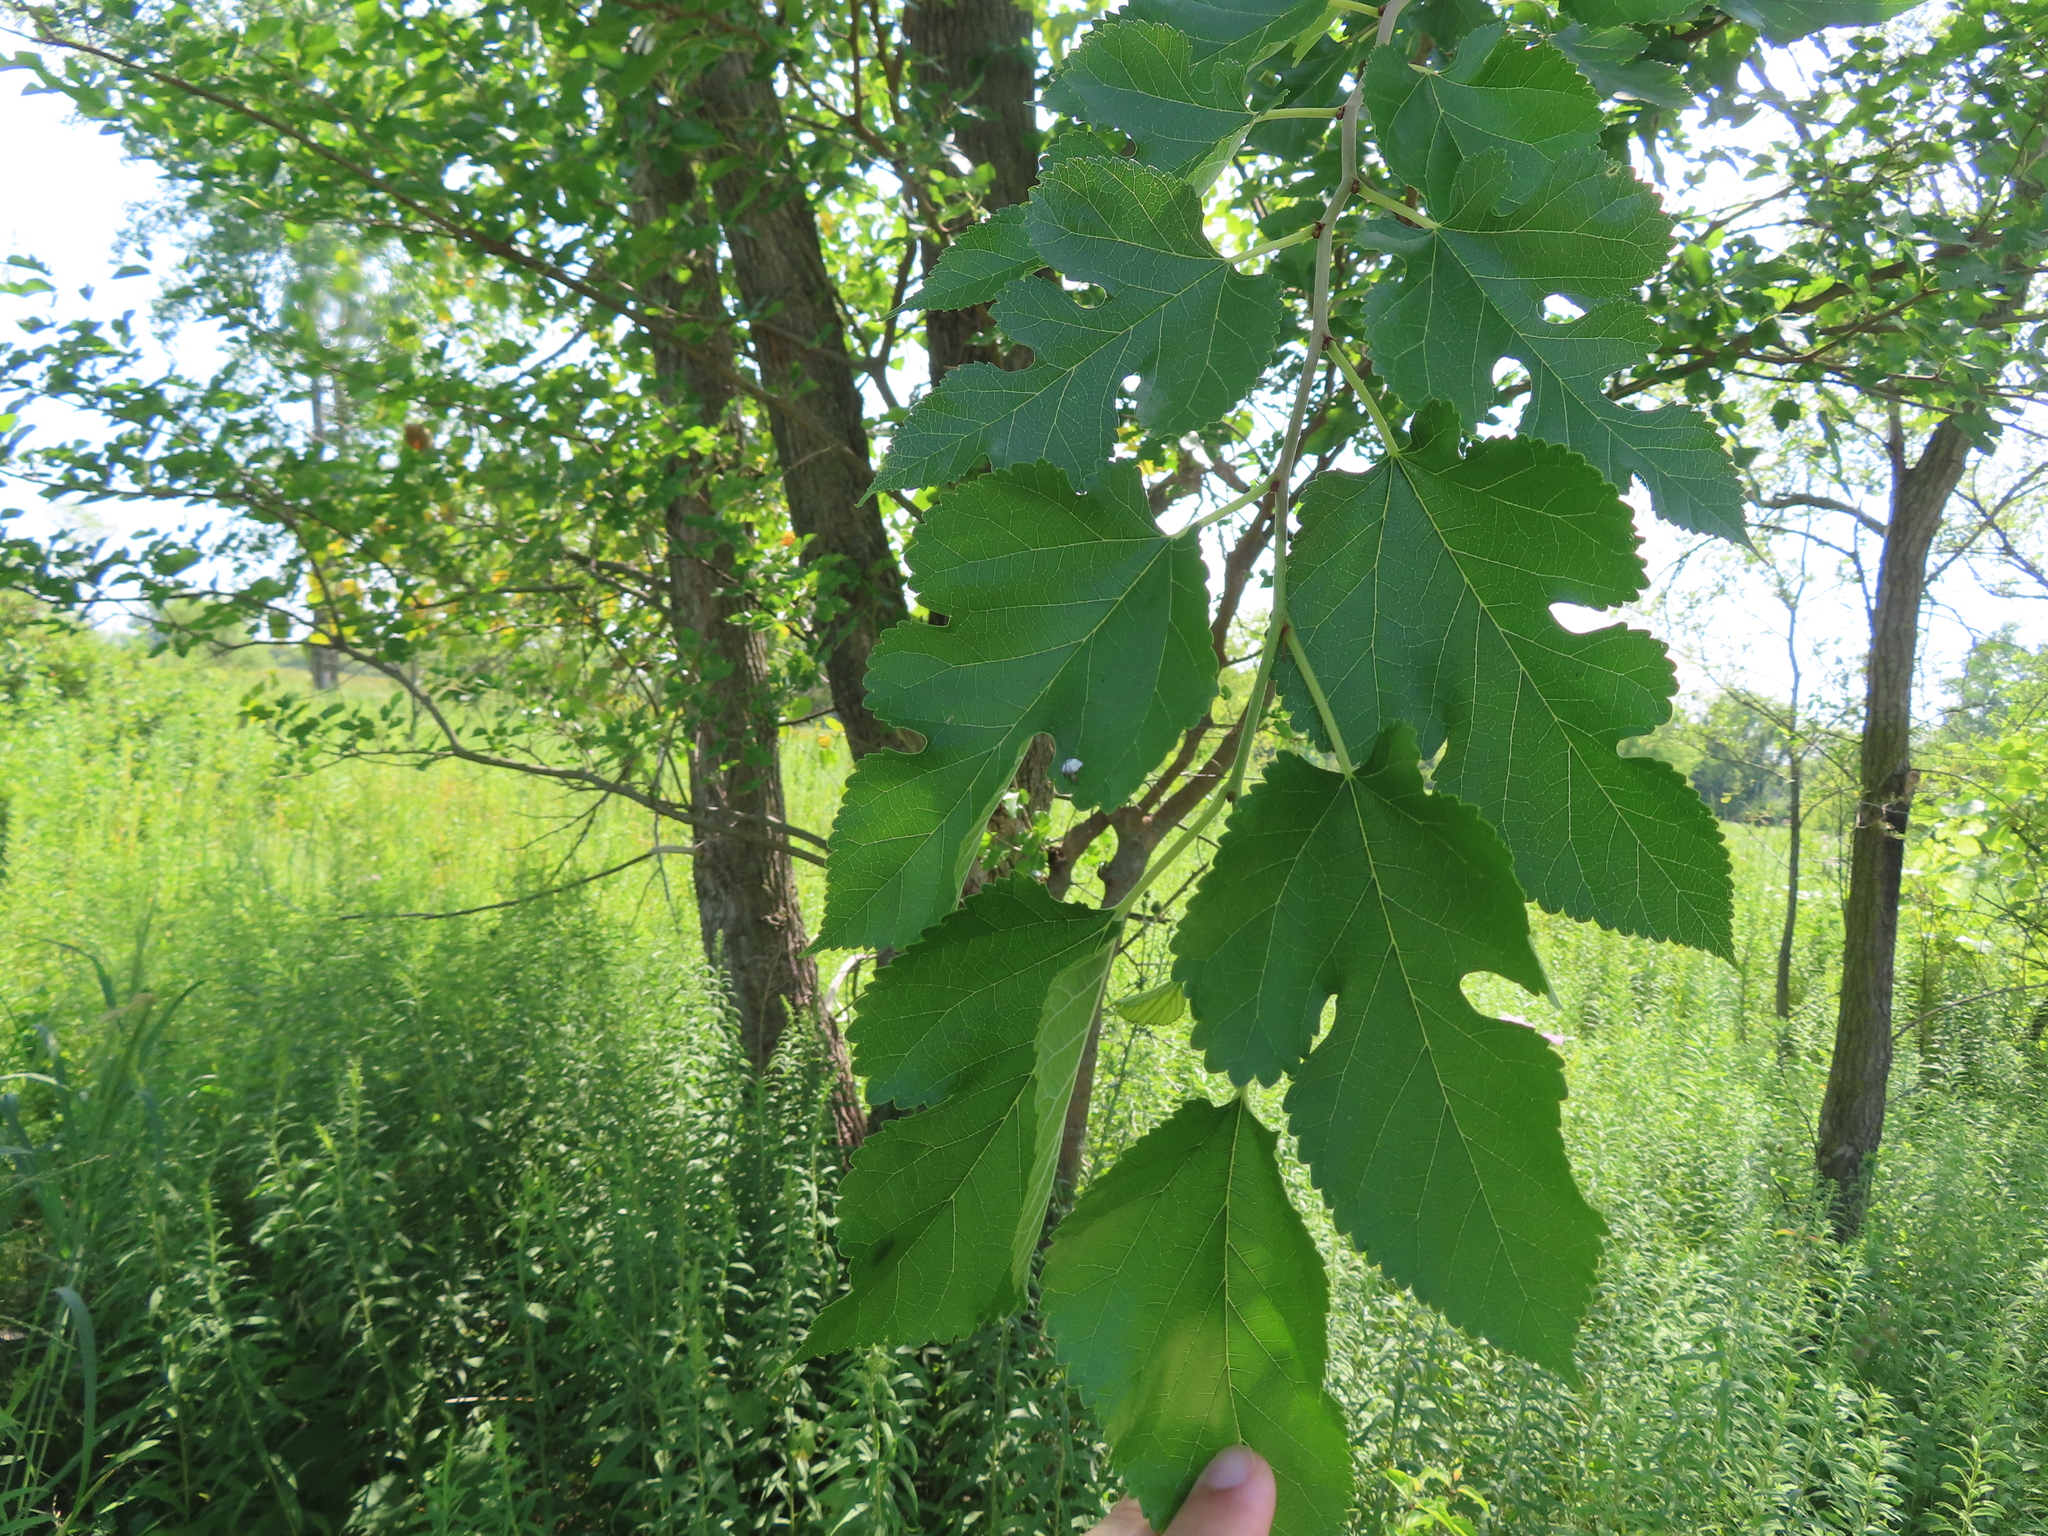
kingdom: Plantae
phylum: Tracheophyta
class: Magnoliopsida
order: Rosales
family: Moraceae
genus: Morus
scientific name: Morus alba
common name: White mulberry
